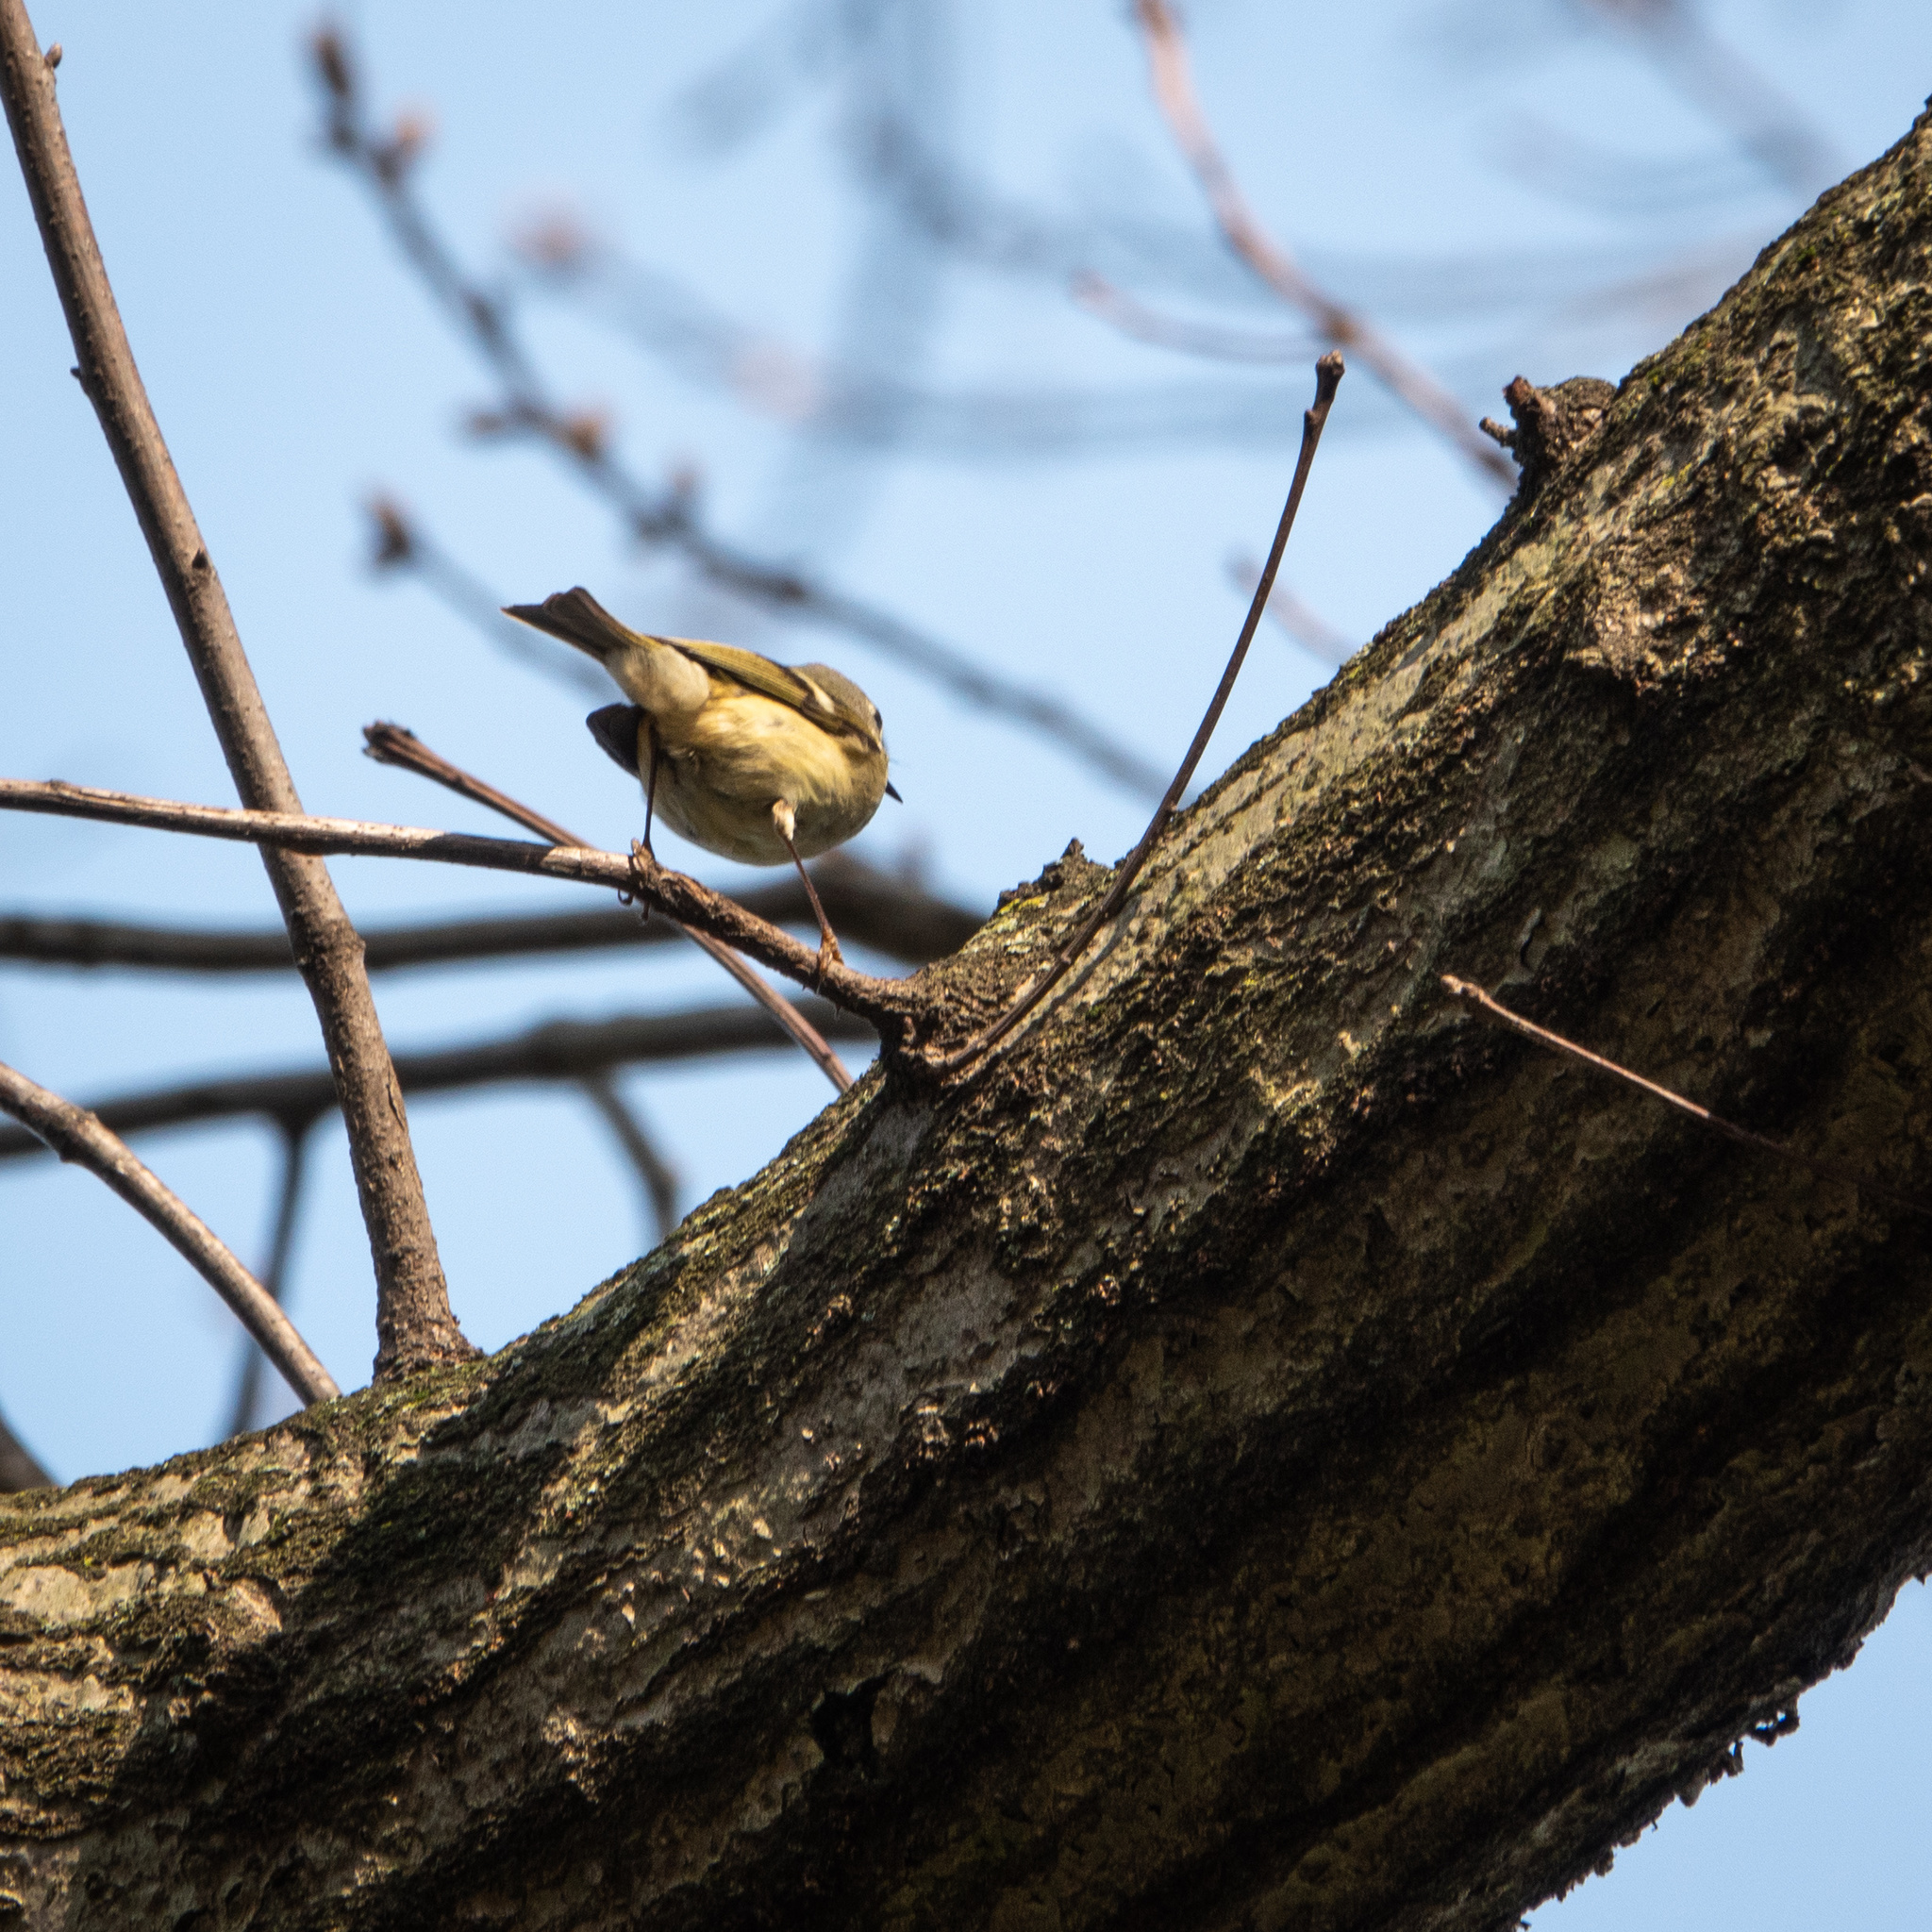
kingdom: Animalia
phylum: Chordata
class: Aves
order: Passeriformes
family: Regulidae
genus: Regulus
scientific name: Regulus calendula
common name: Ruby-crowned kinglet
